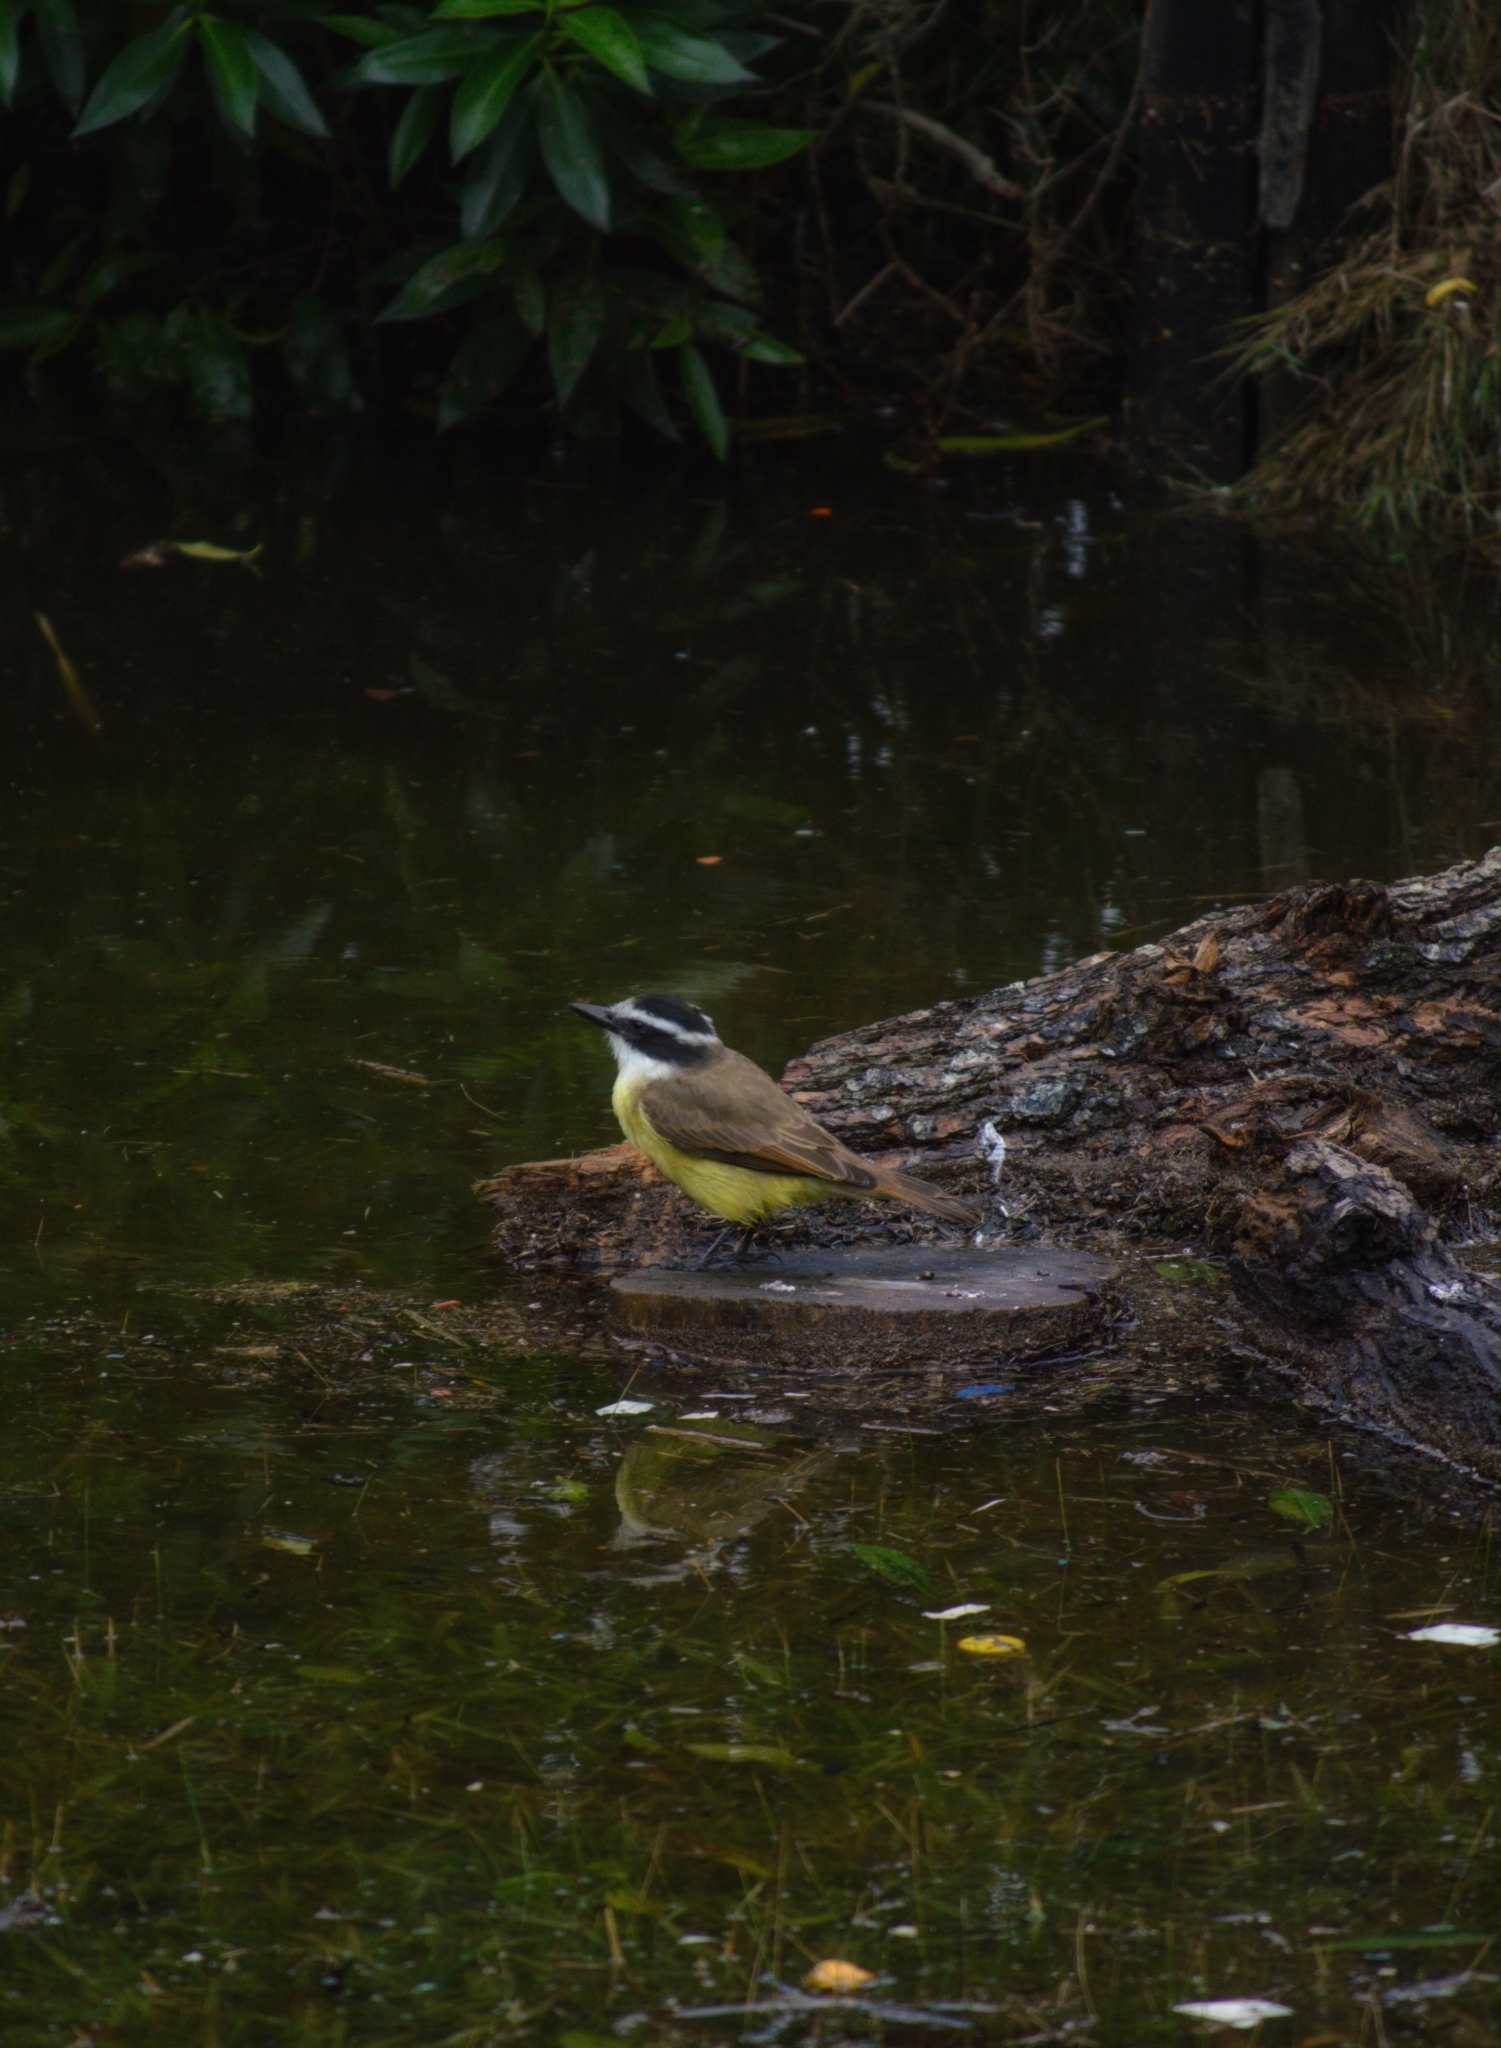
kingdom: Animalia
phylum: Chordata
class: Aves
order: Passeriformes
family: Tyrannidae
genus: Pitangus
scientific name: Pitangus sulphuratus
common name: Great kiskadee
